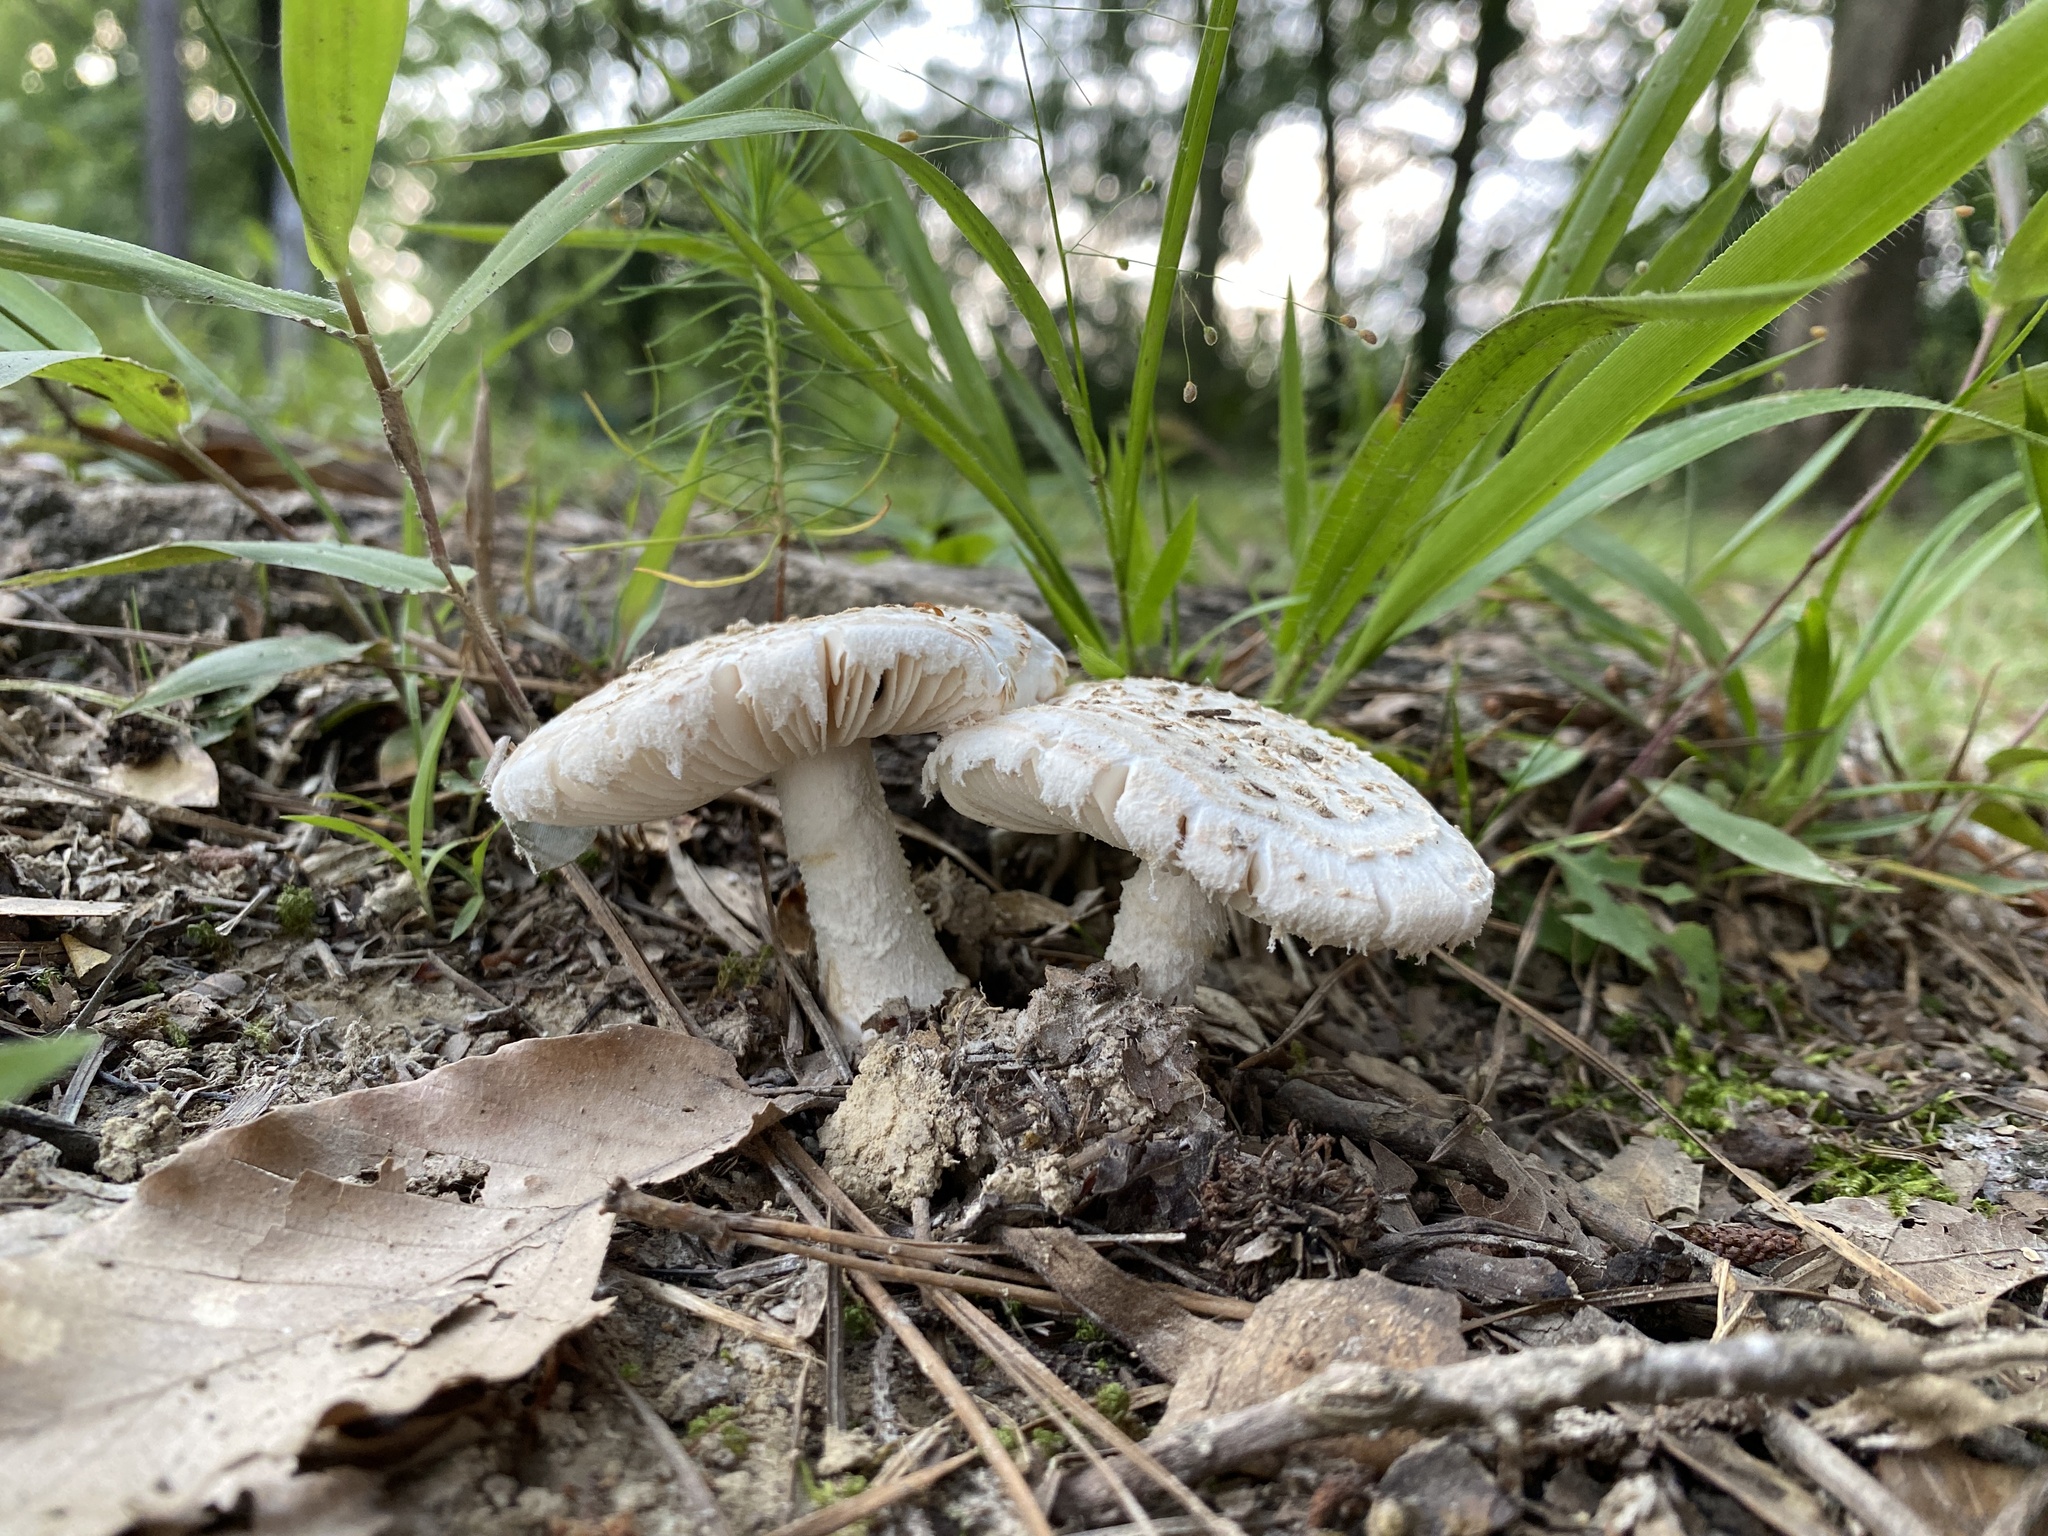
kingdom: Fungi
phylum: Basidiomycota
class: Agaricomycetes
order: Agaricales
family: Amanitaceae
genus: Aspidella
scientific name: Aspidella hesleri
